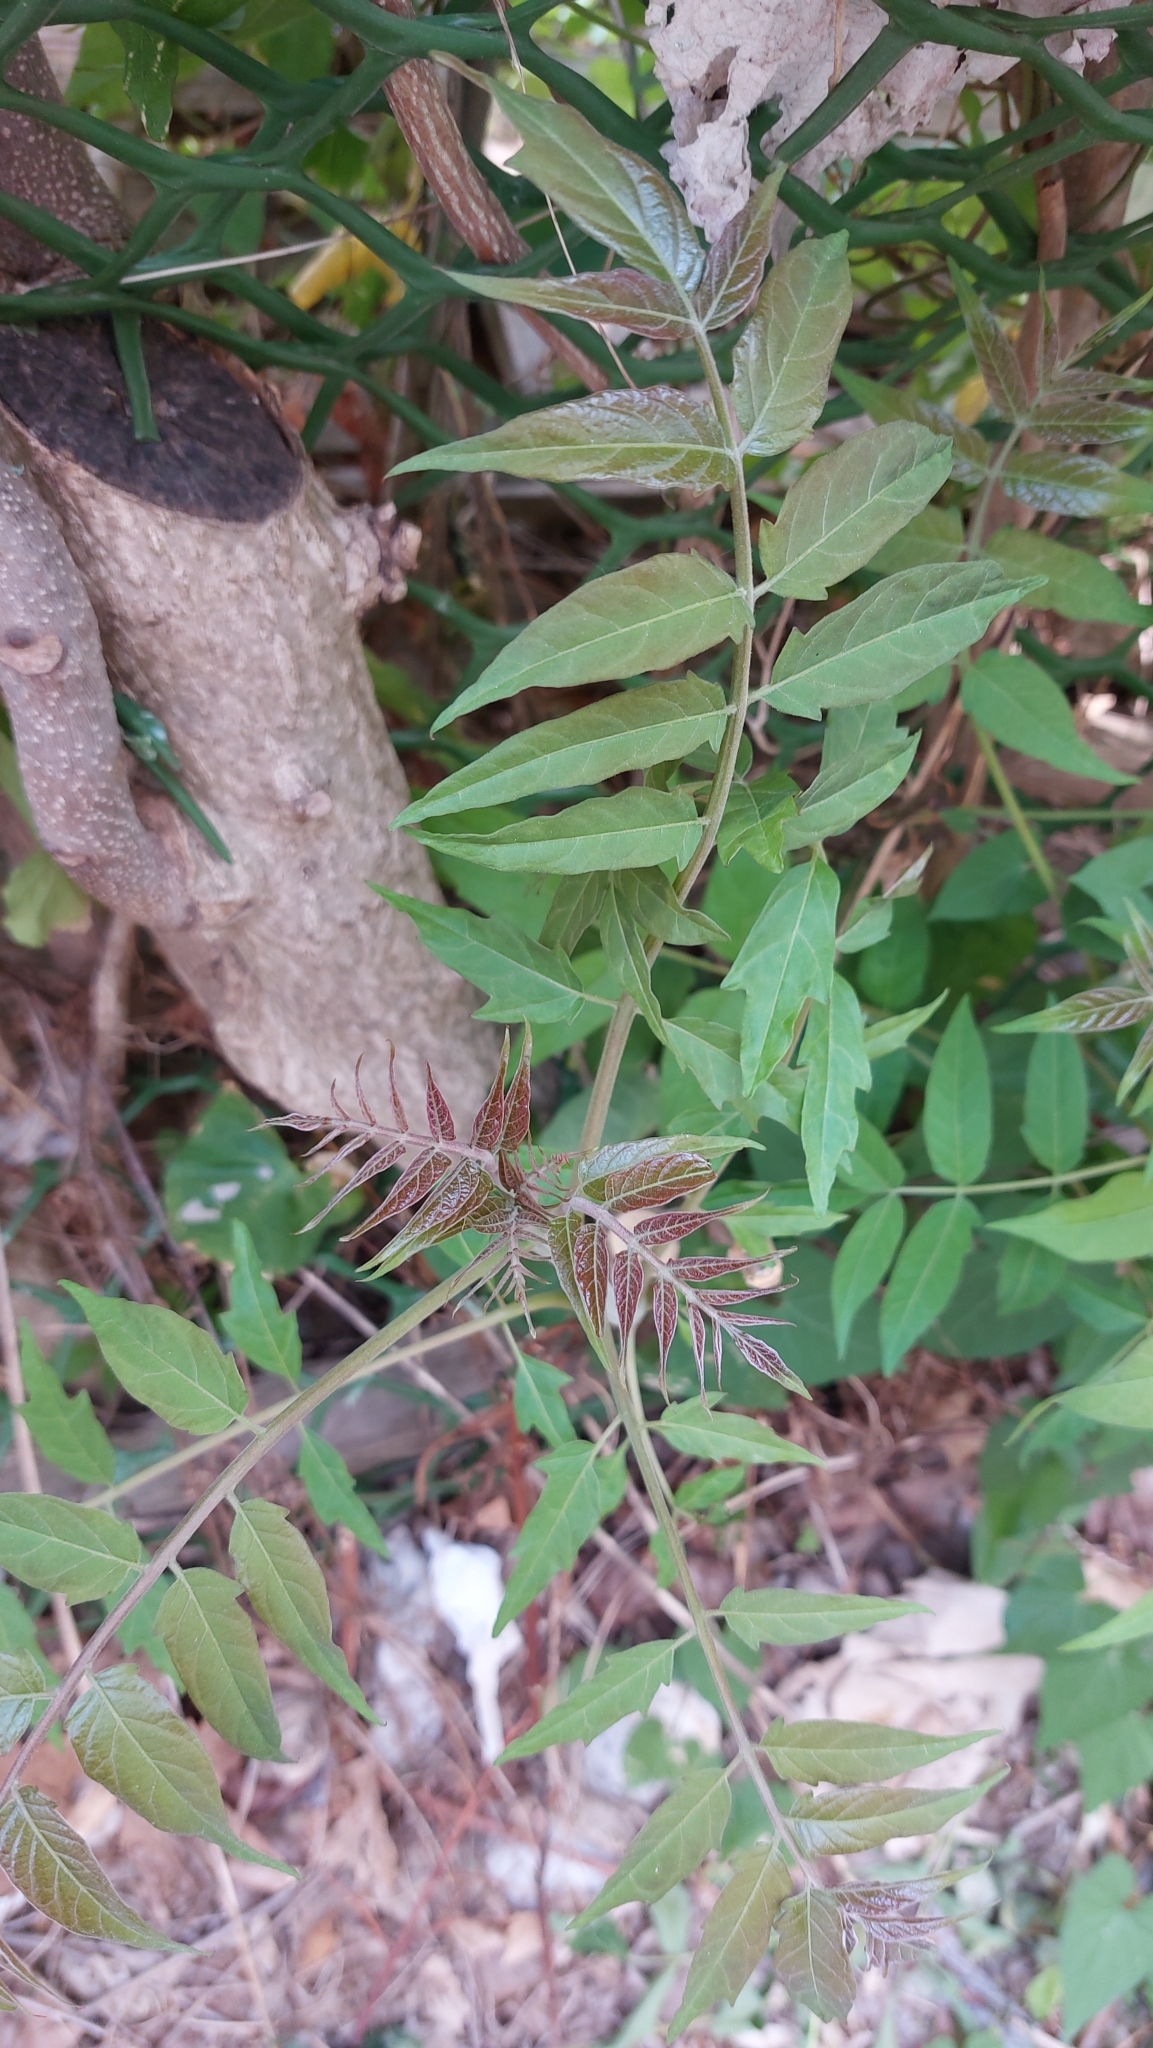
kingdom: Plantae
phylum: Tracheophyta
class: Magnoliopsida
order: Sapindales
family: Simaroubaceae
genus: Ailanthus
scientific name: Ailanthus altissima
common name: Tree-of-heaven
